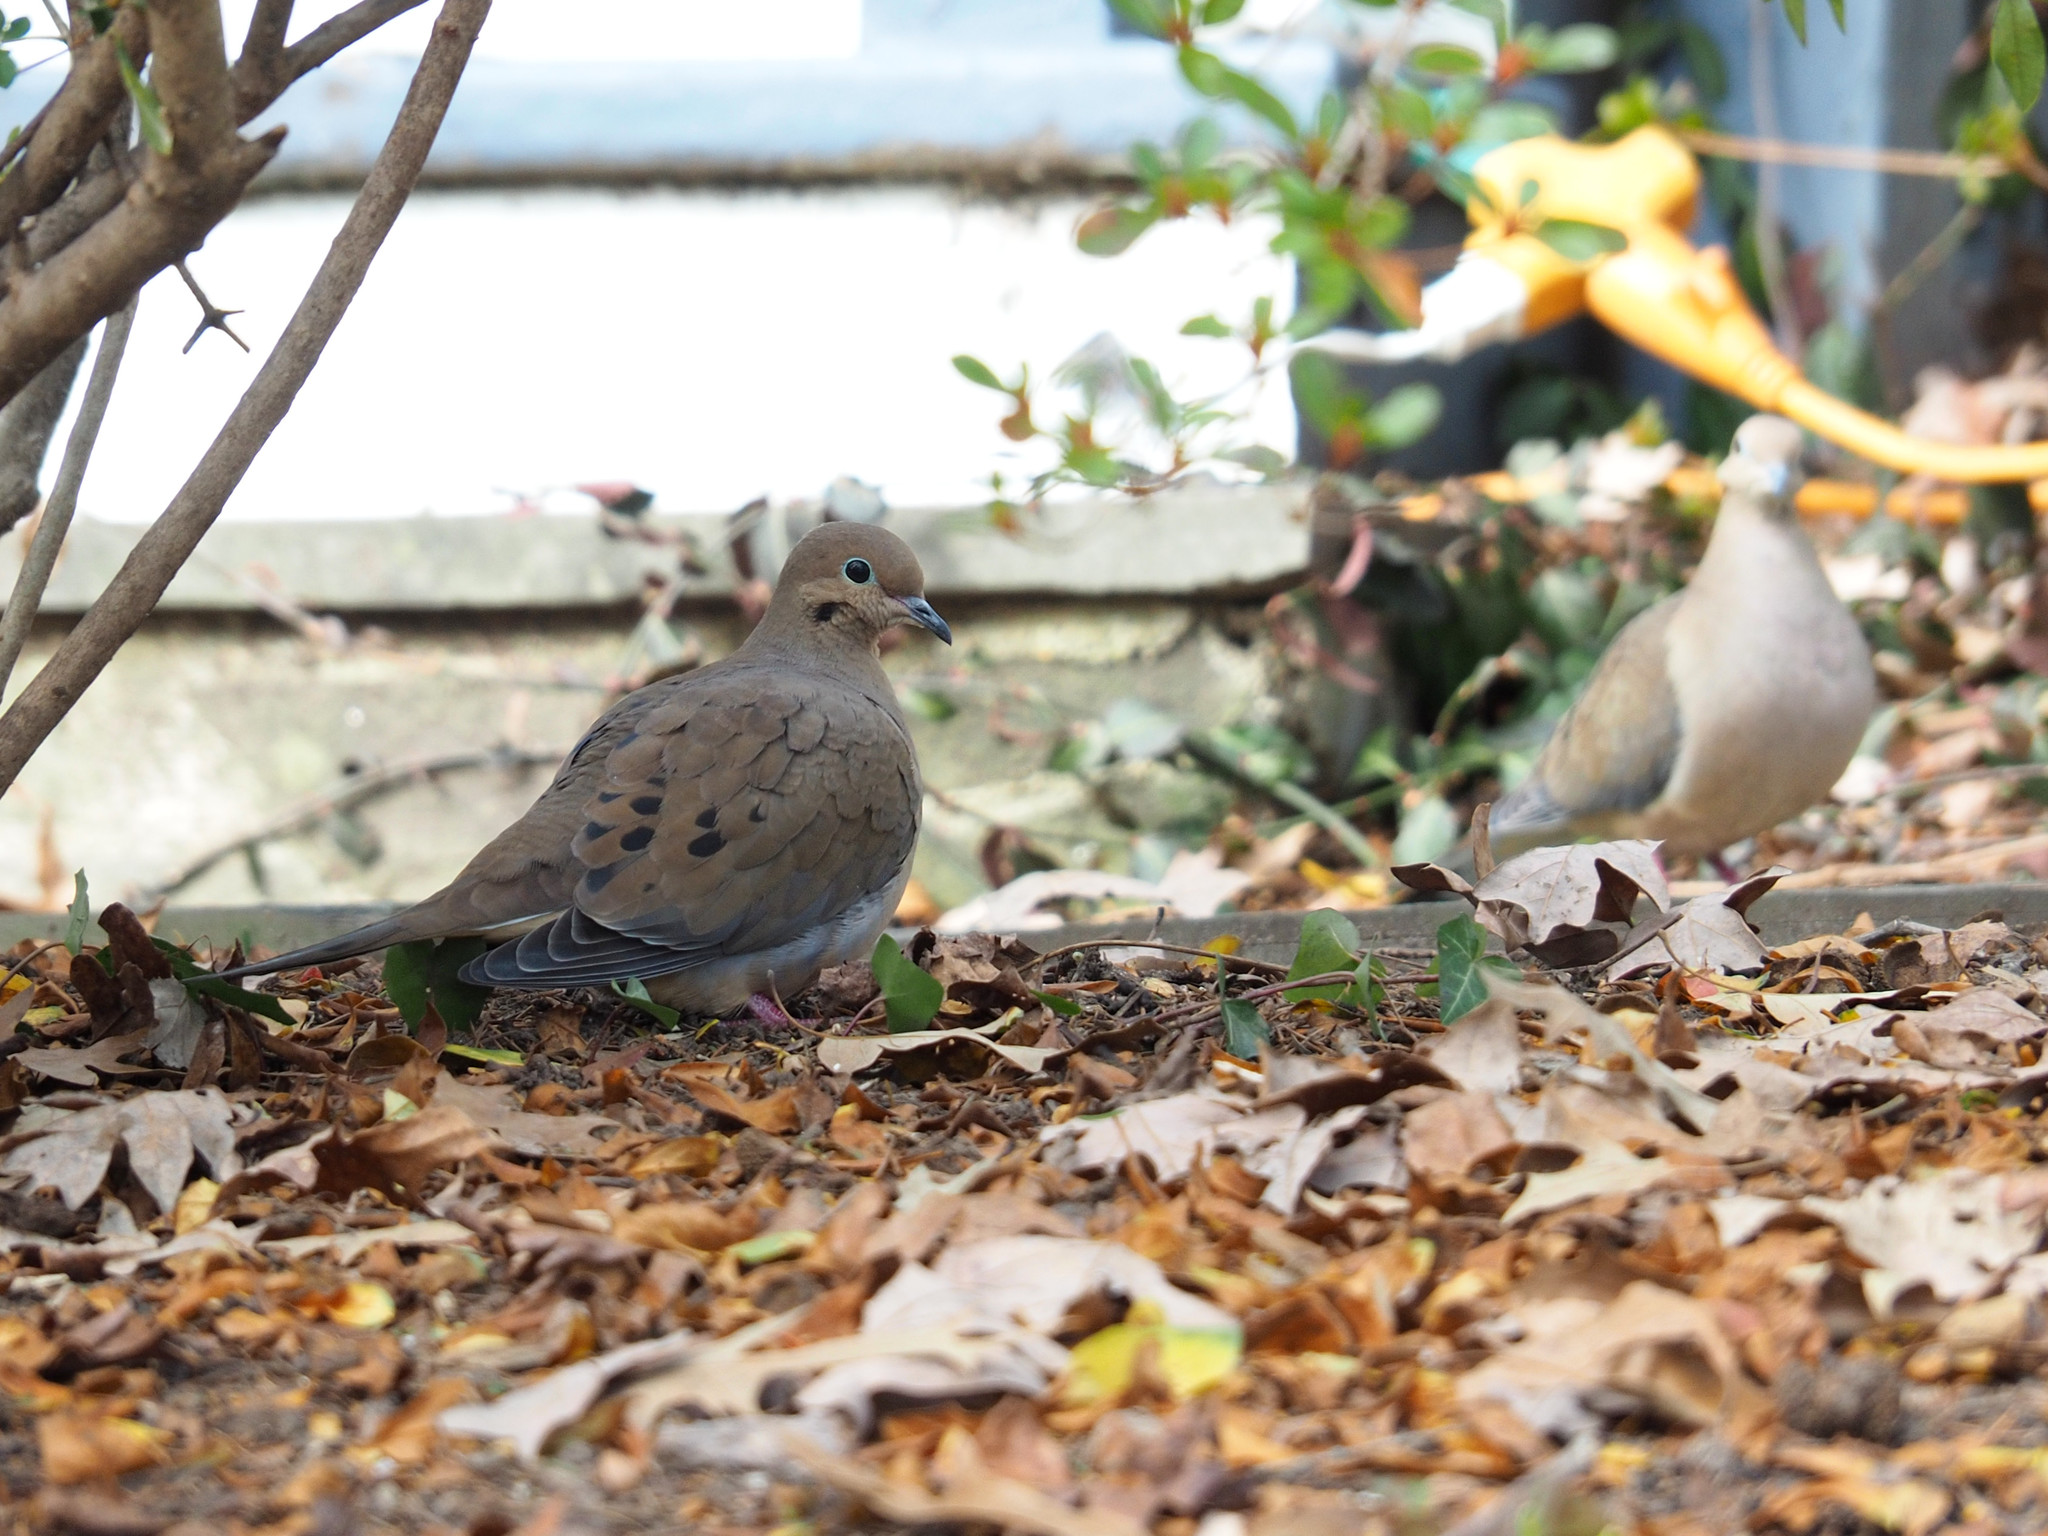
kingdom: Animalia
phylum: Chordata
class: Aves
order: Columbiformes
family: Columbidae
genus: Zenaida
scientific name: Zenaida macroura
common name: Mourning dove
